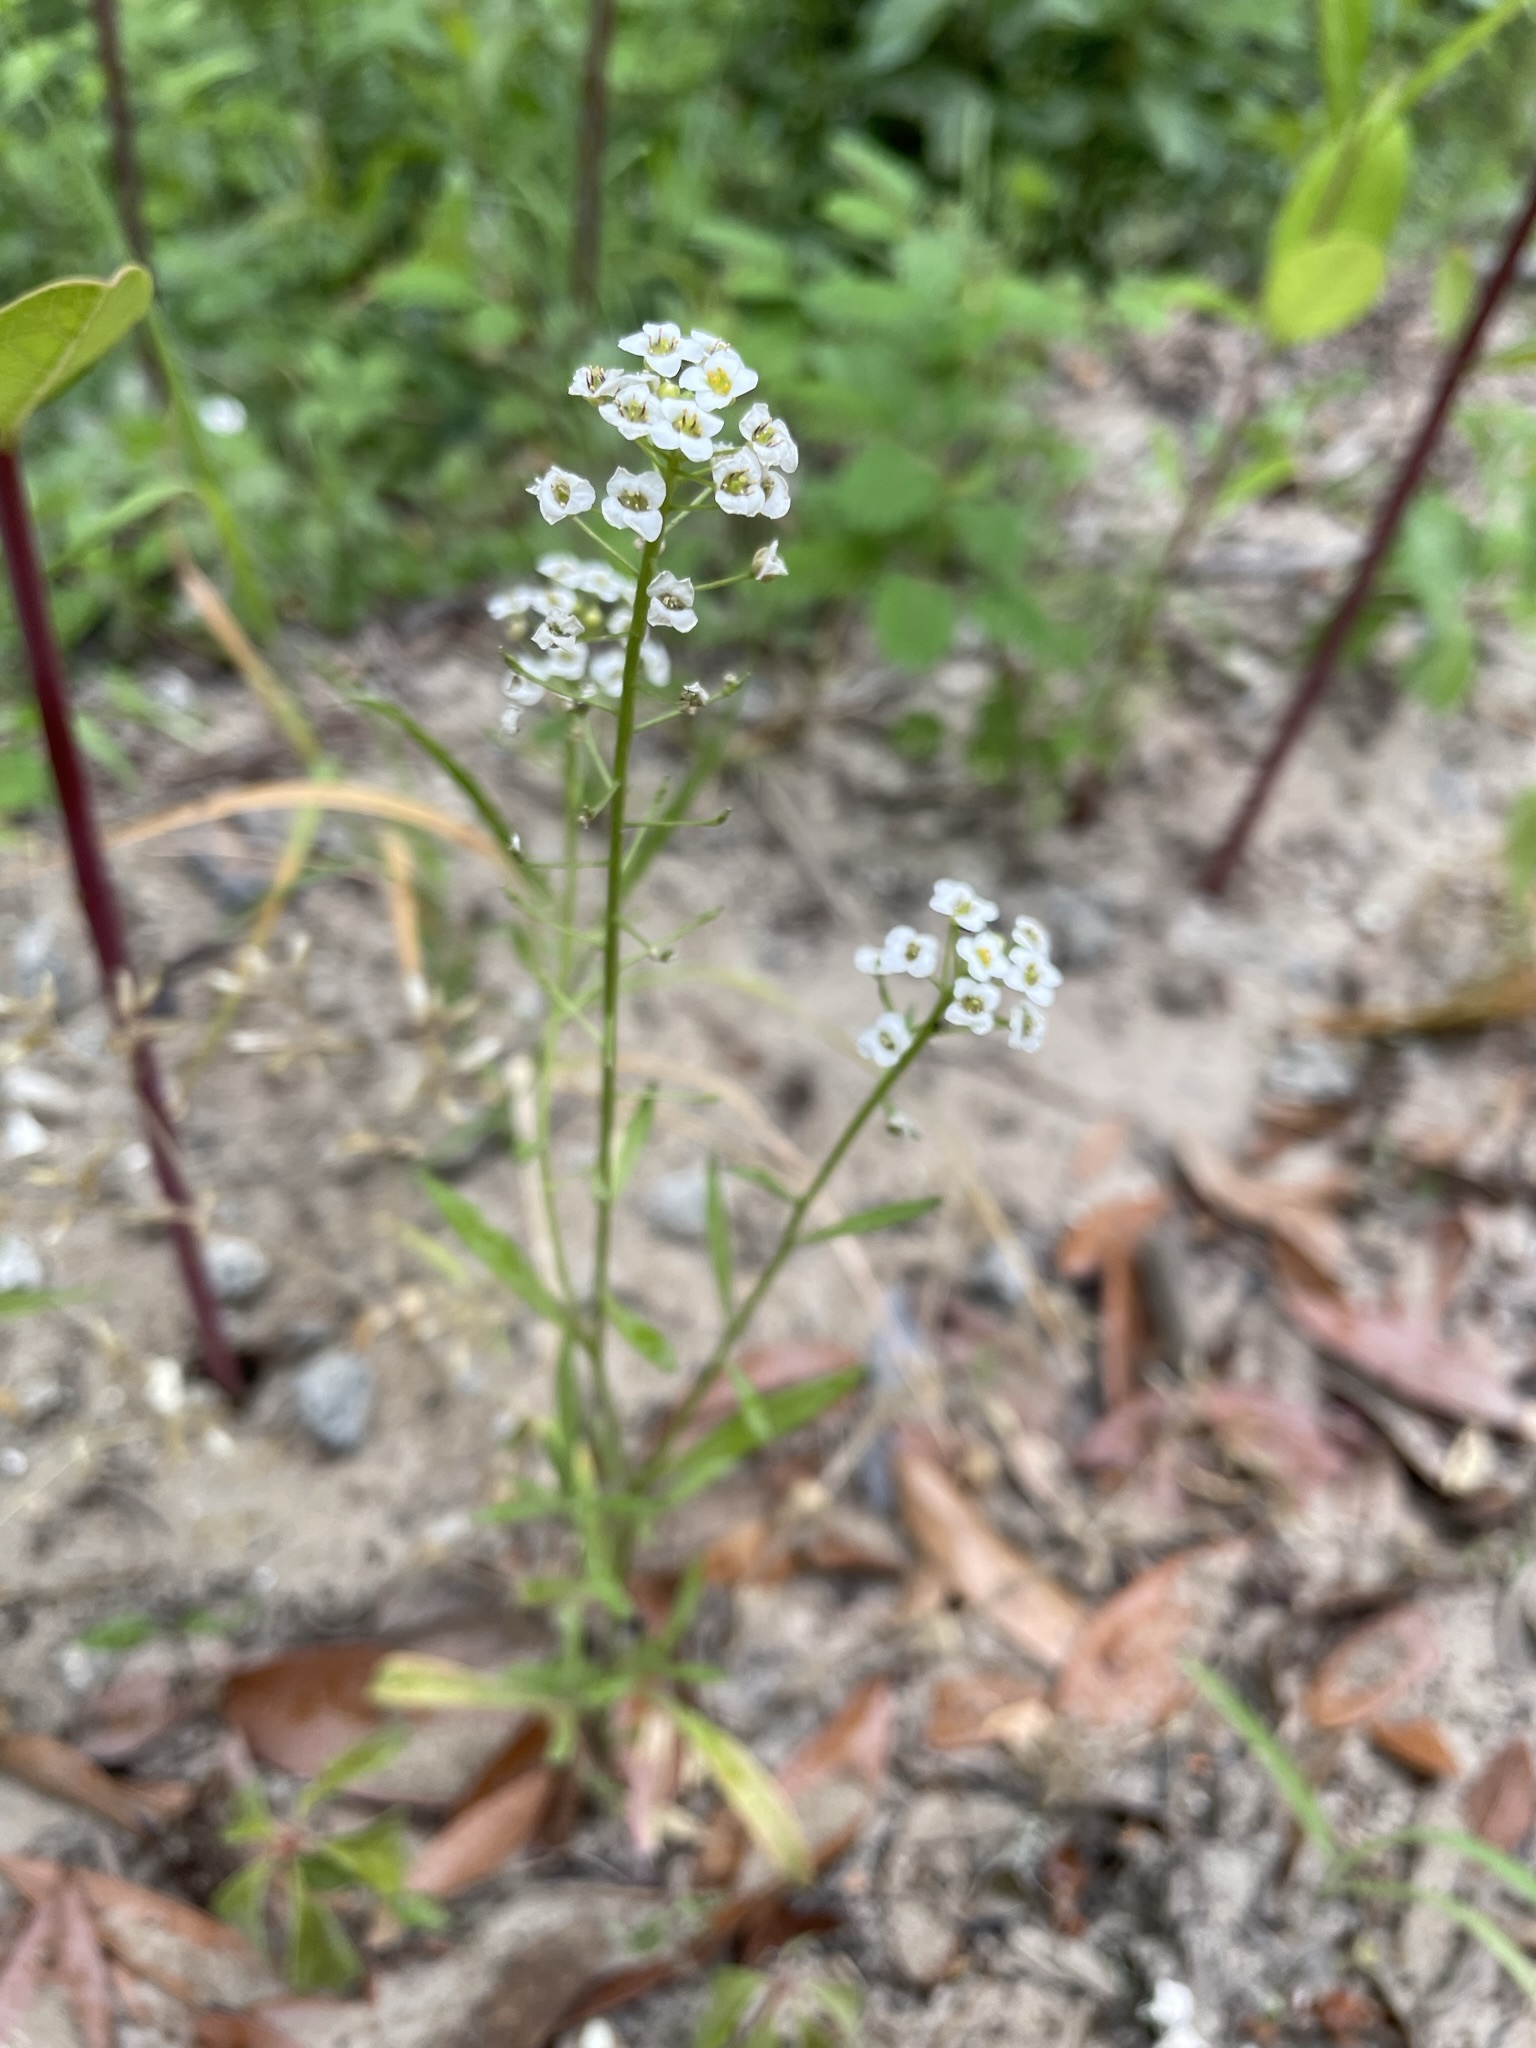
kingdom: Plantae
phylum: Tracheophyta
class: Magnoliopsida
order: Brassicales
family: Brassicaceae
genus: Lobularia
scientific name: Lobularia maritima
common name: Sweet alison
